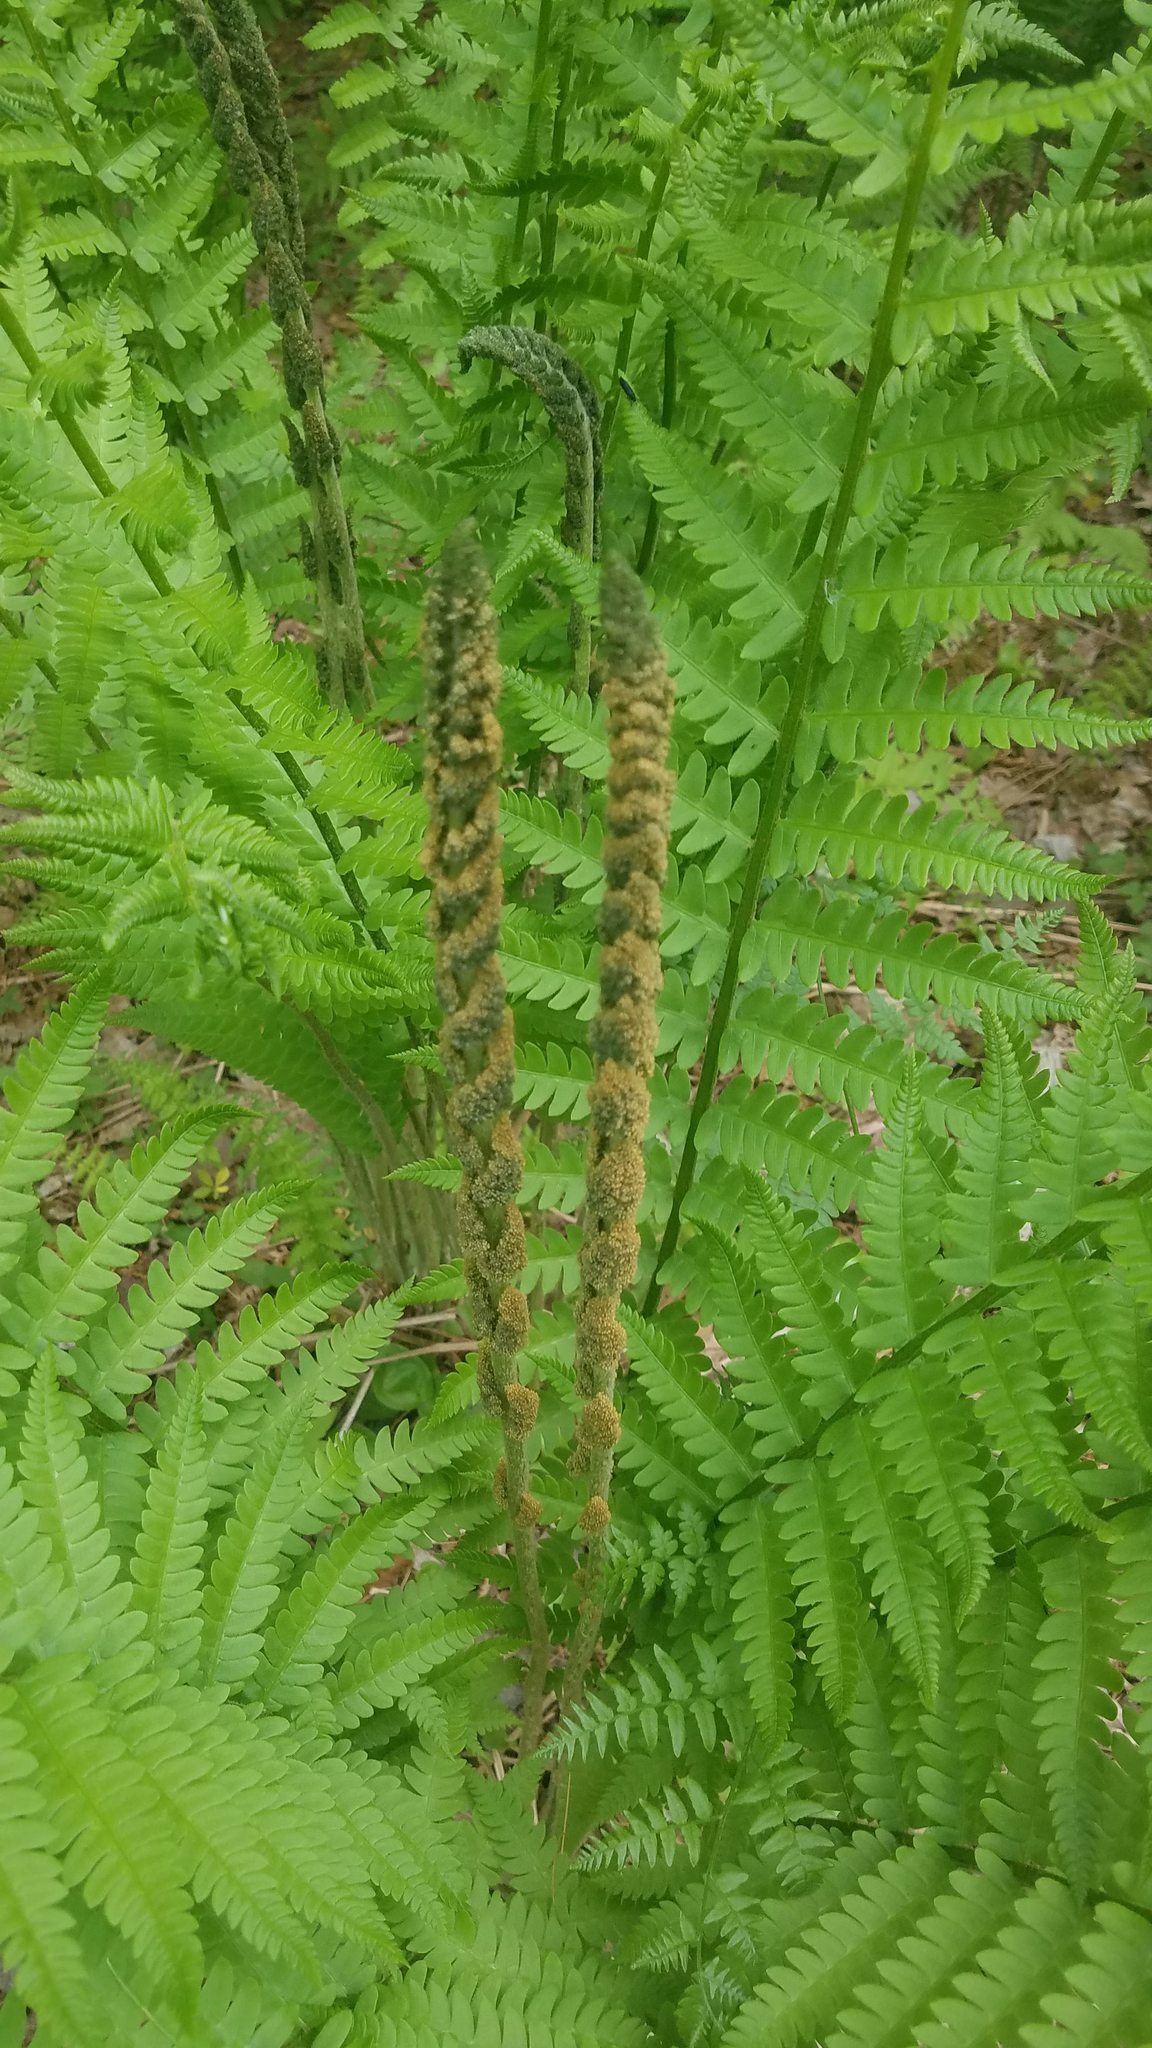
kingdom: Plantae
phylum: Tracheophyta
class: Polypodiopsida
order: Osmundales
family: Osmundaceae
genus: Osmundastrum
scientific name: Osmundastrum cinnamomeum
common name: Cinnamon fern
